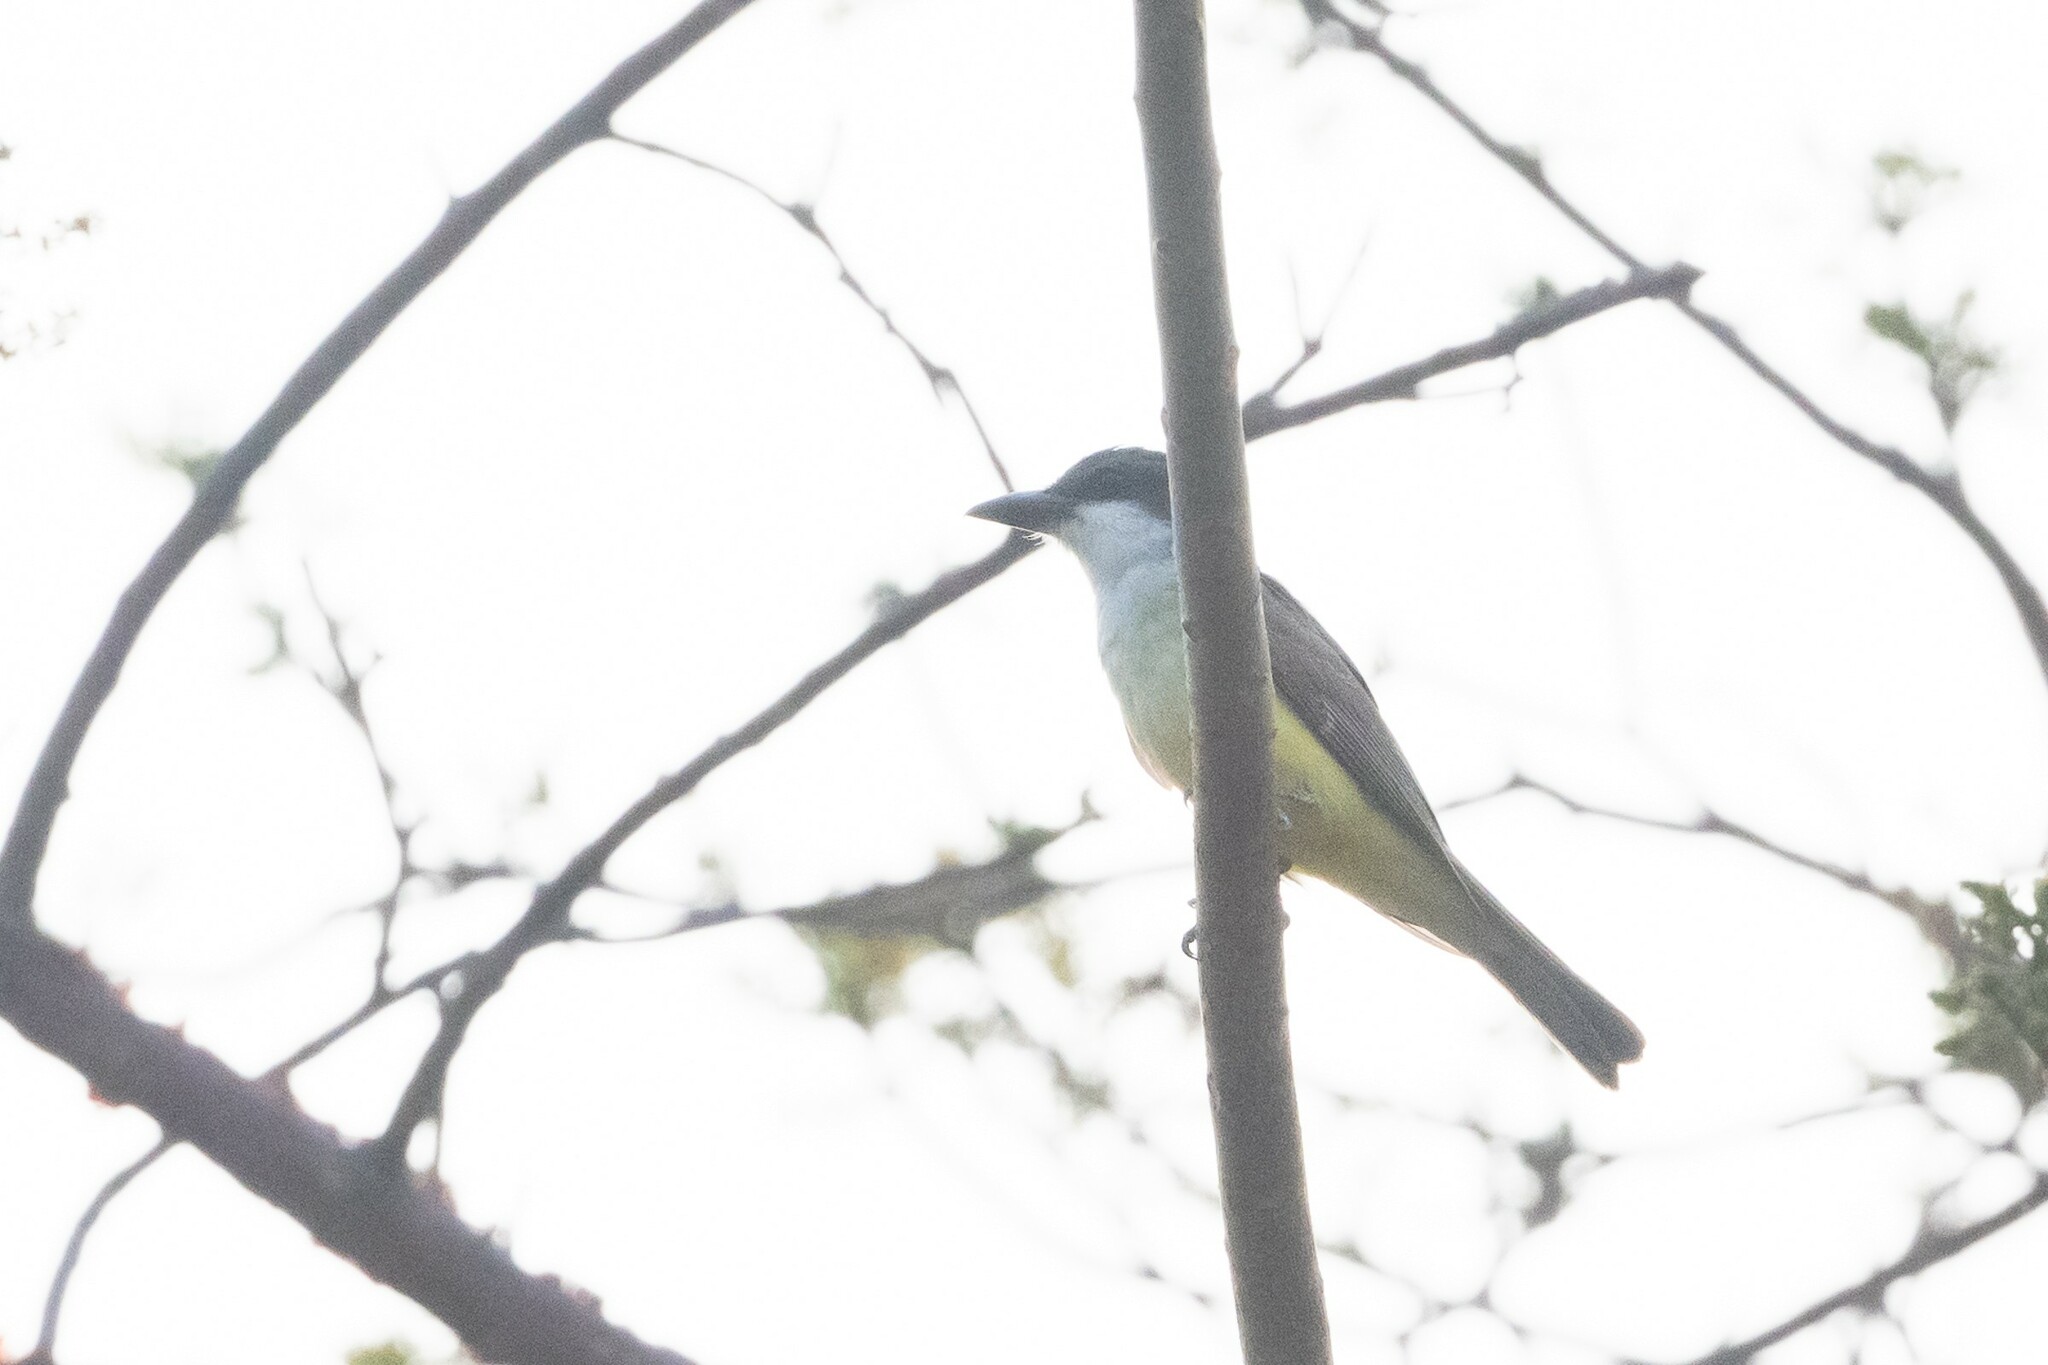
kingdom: Animalia
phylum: Chordata
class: Aves
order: Passeriformes
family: Tyrannidae
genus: Tyrannus
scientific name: Tyrannus crassirostris
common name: Thick-billed kingbird
